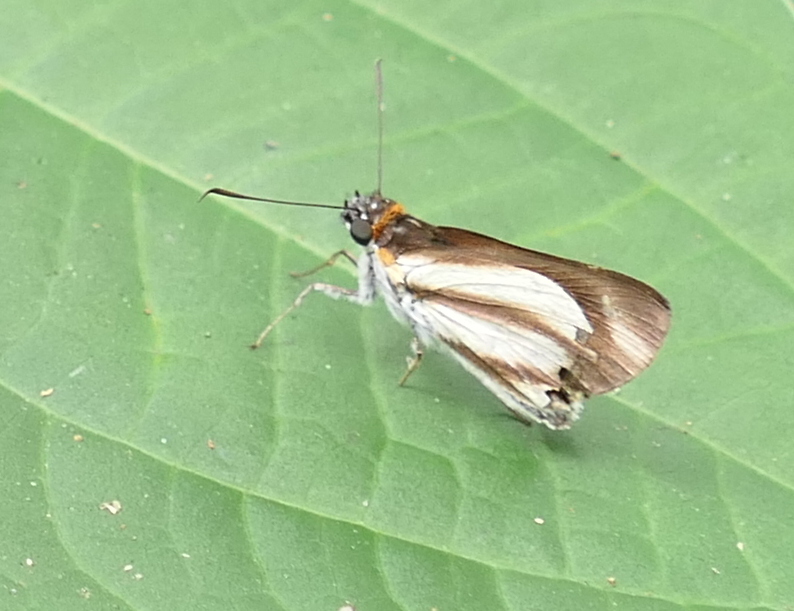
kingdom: Animalia
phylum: Arthropoda
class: Insecta
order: Lepidoptera
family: Hesperiidae
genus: Vettius
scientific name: Vettius marcus
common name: Marcus skipper
